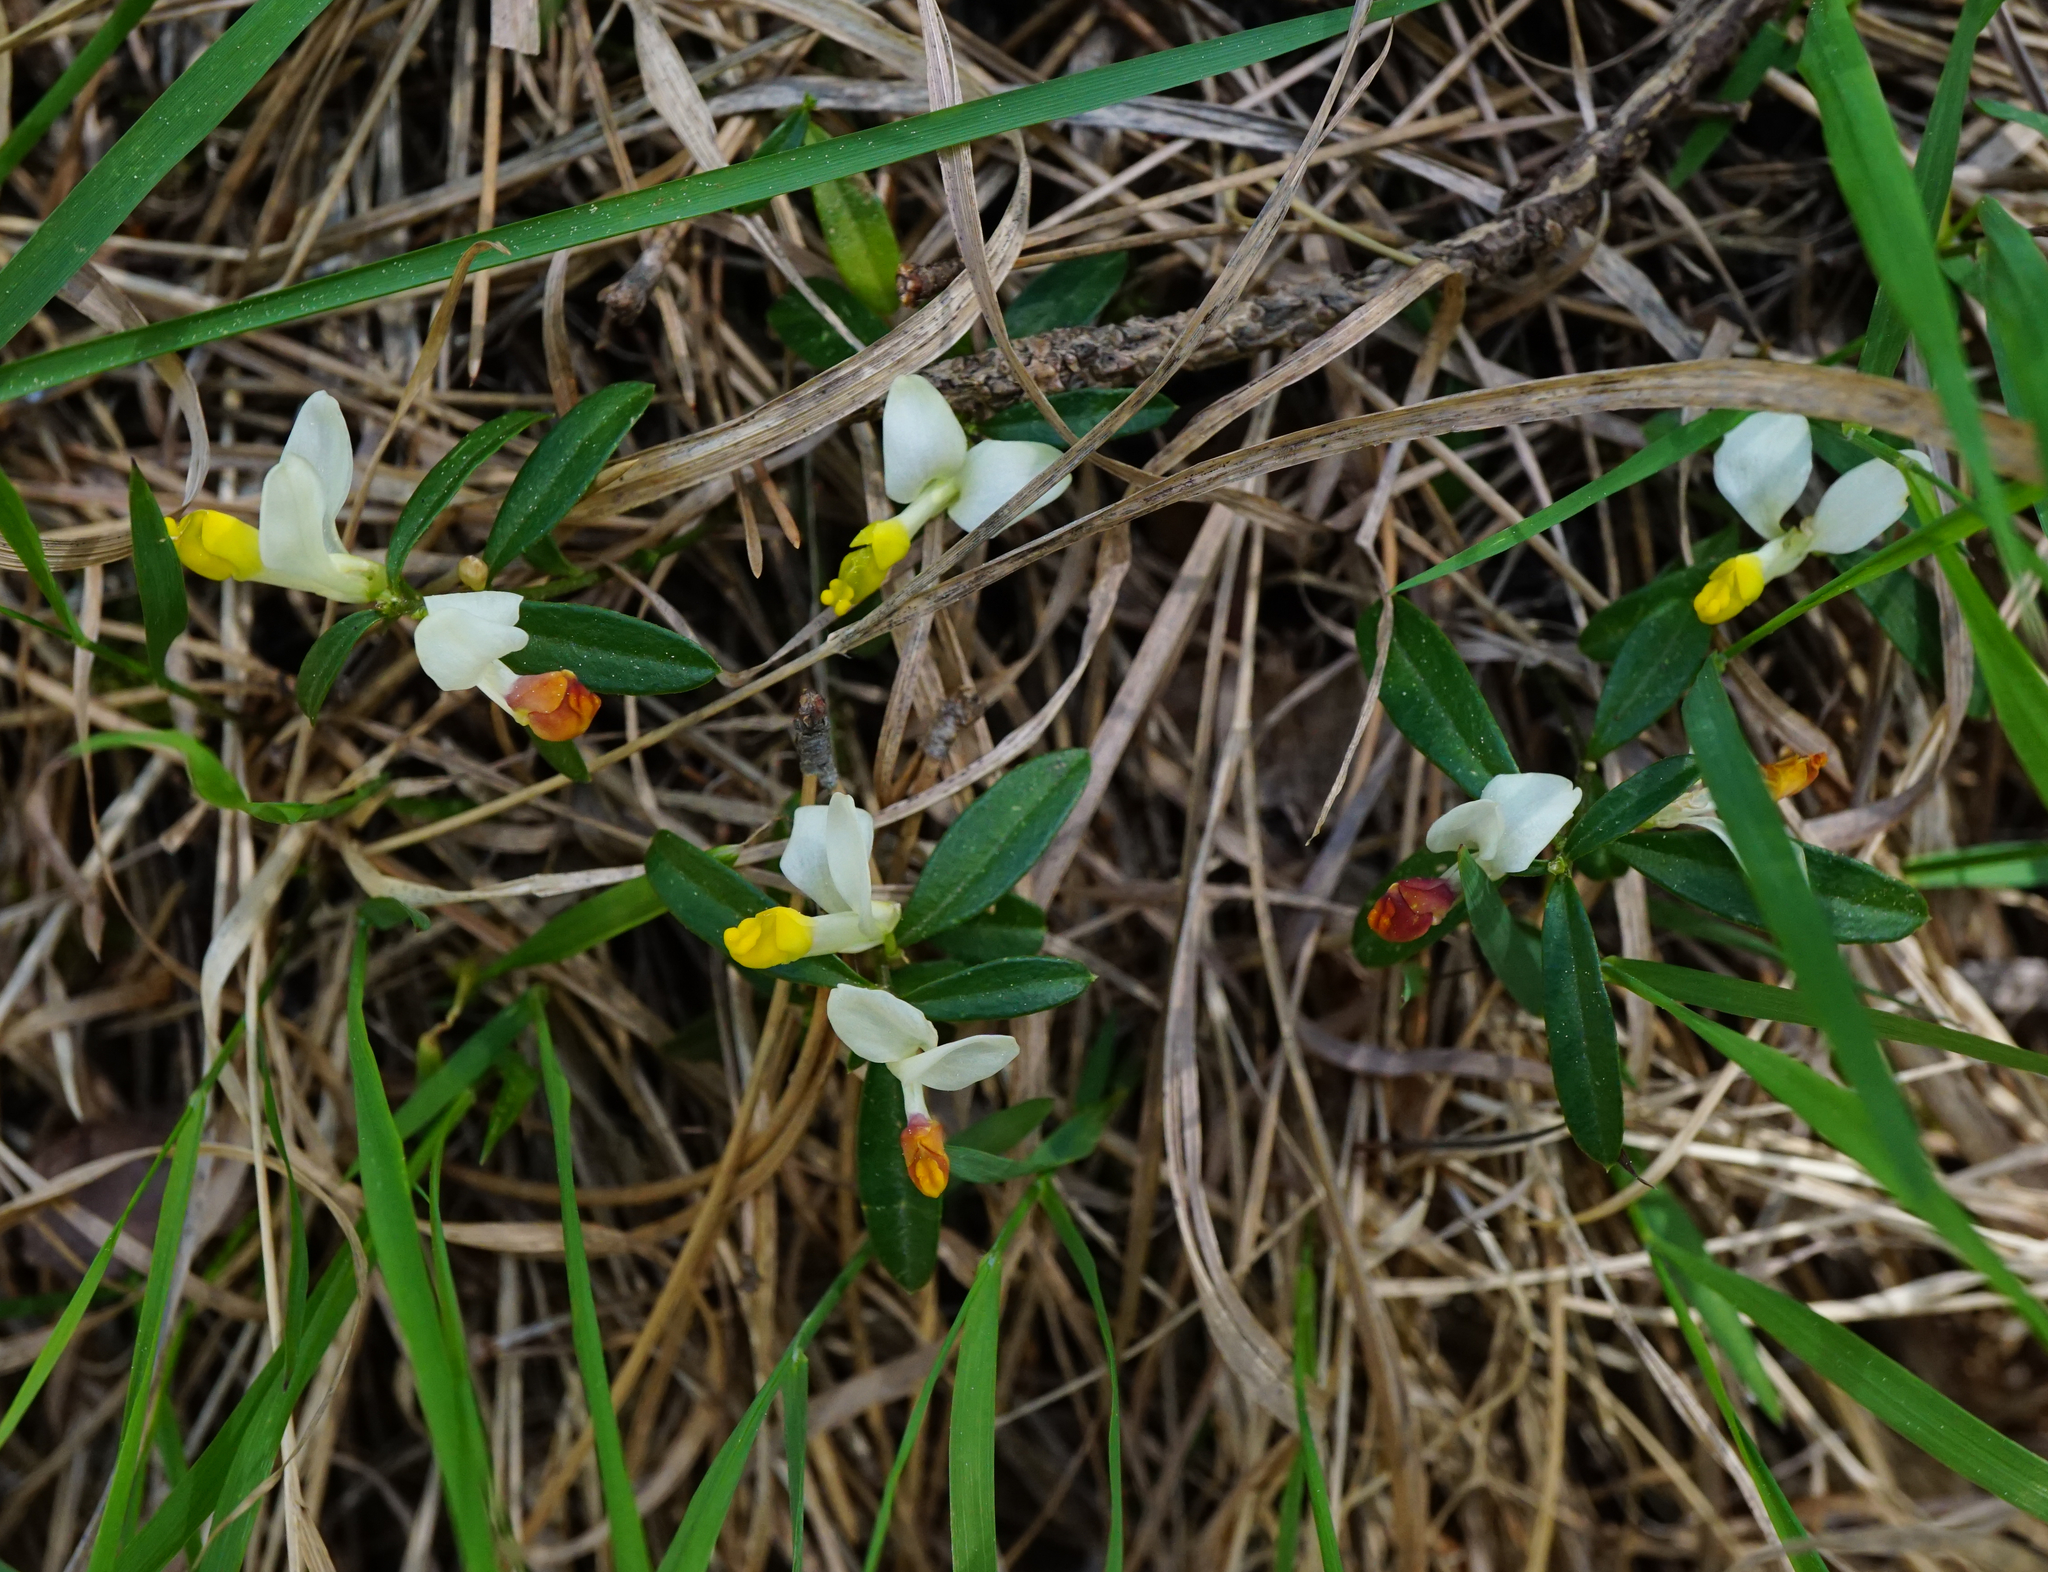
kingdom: Plantae
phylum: Tracheophyta
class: Magnoliopsida
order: Fabales
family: Polygalaceae
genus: Polygaloides
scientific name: Polygaloides chamaebuxus
